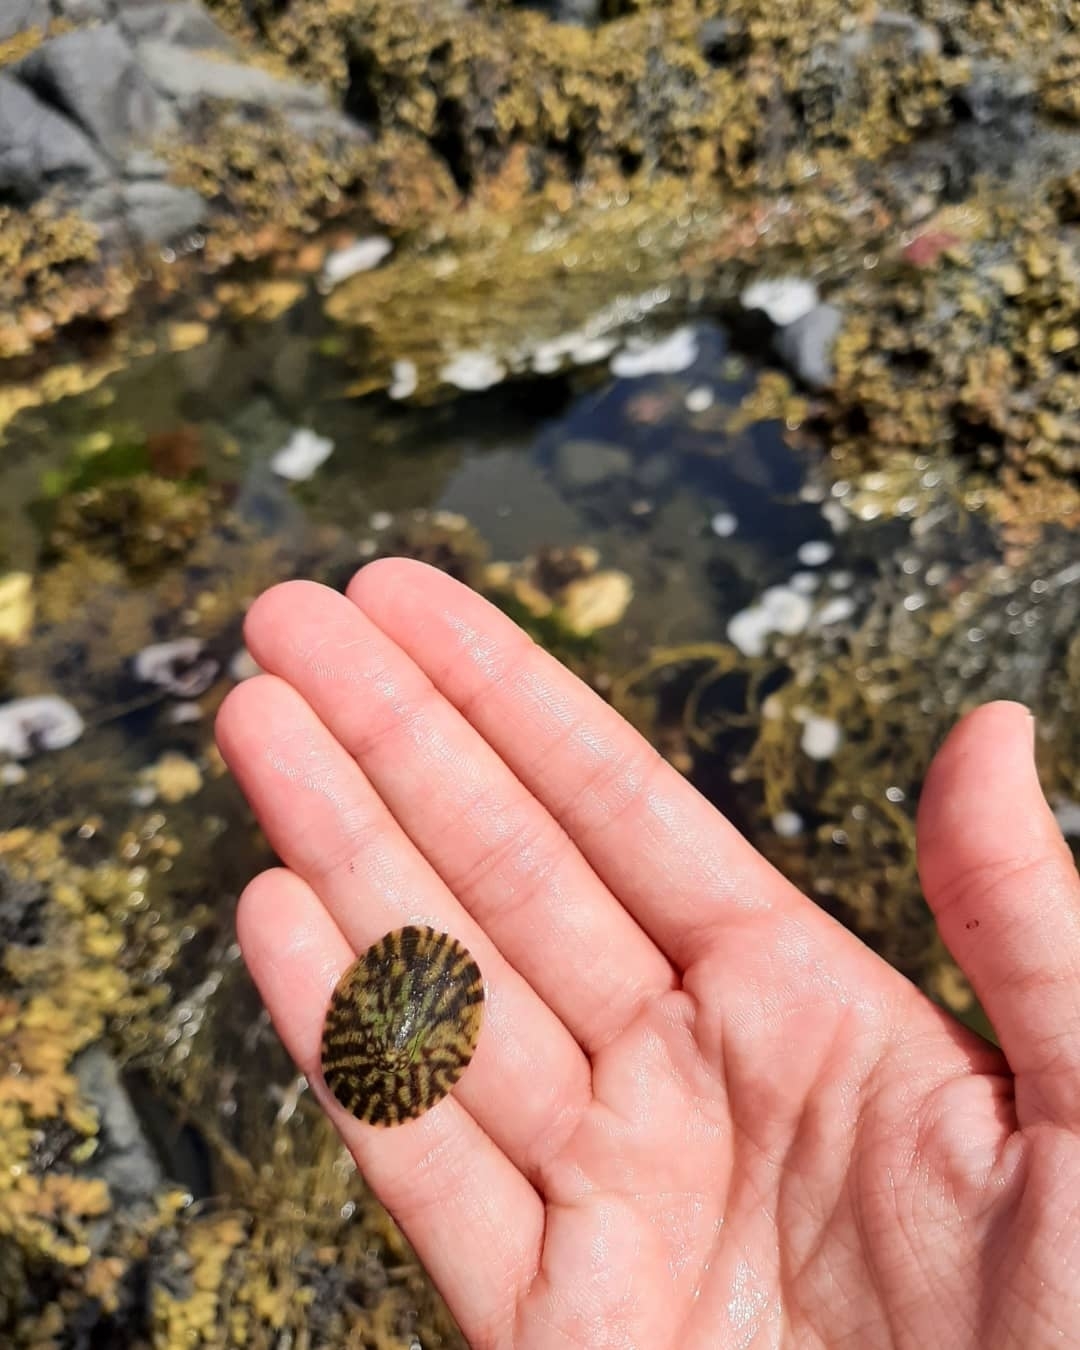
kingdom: Animalia
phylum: Mollusca
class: Gastropoda
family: Lottiidae
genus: Testudinalia
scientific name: Testudinalia testudinalis
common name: Common tortoiseshell limpet
